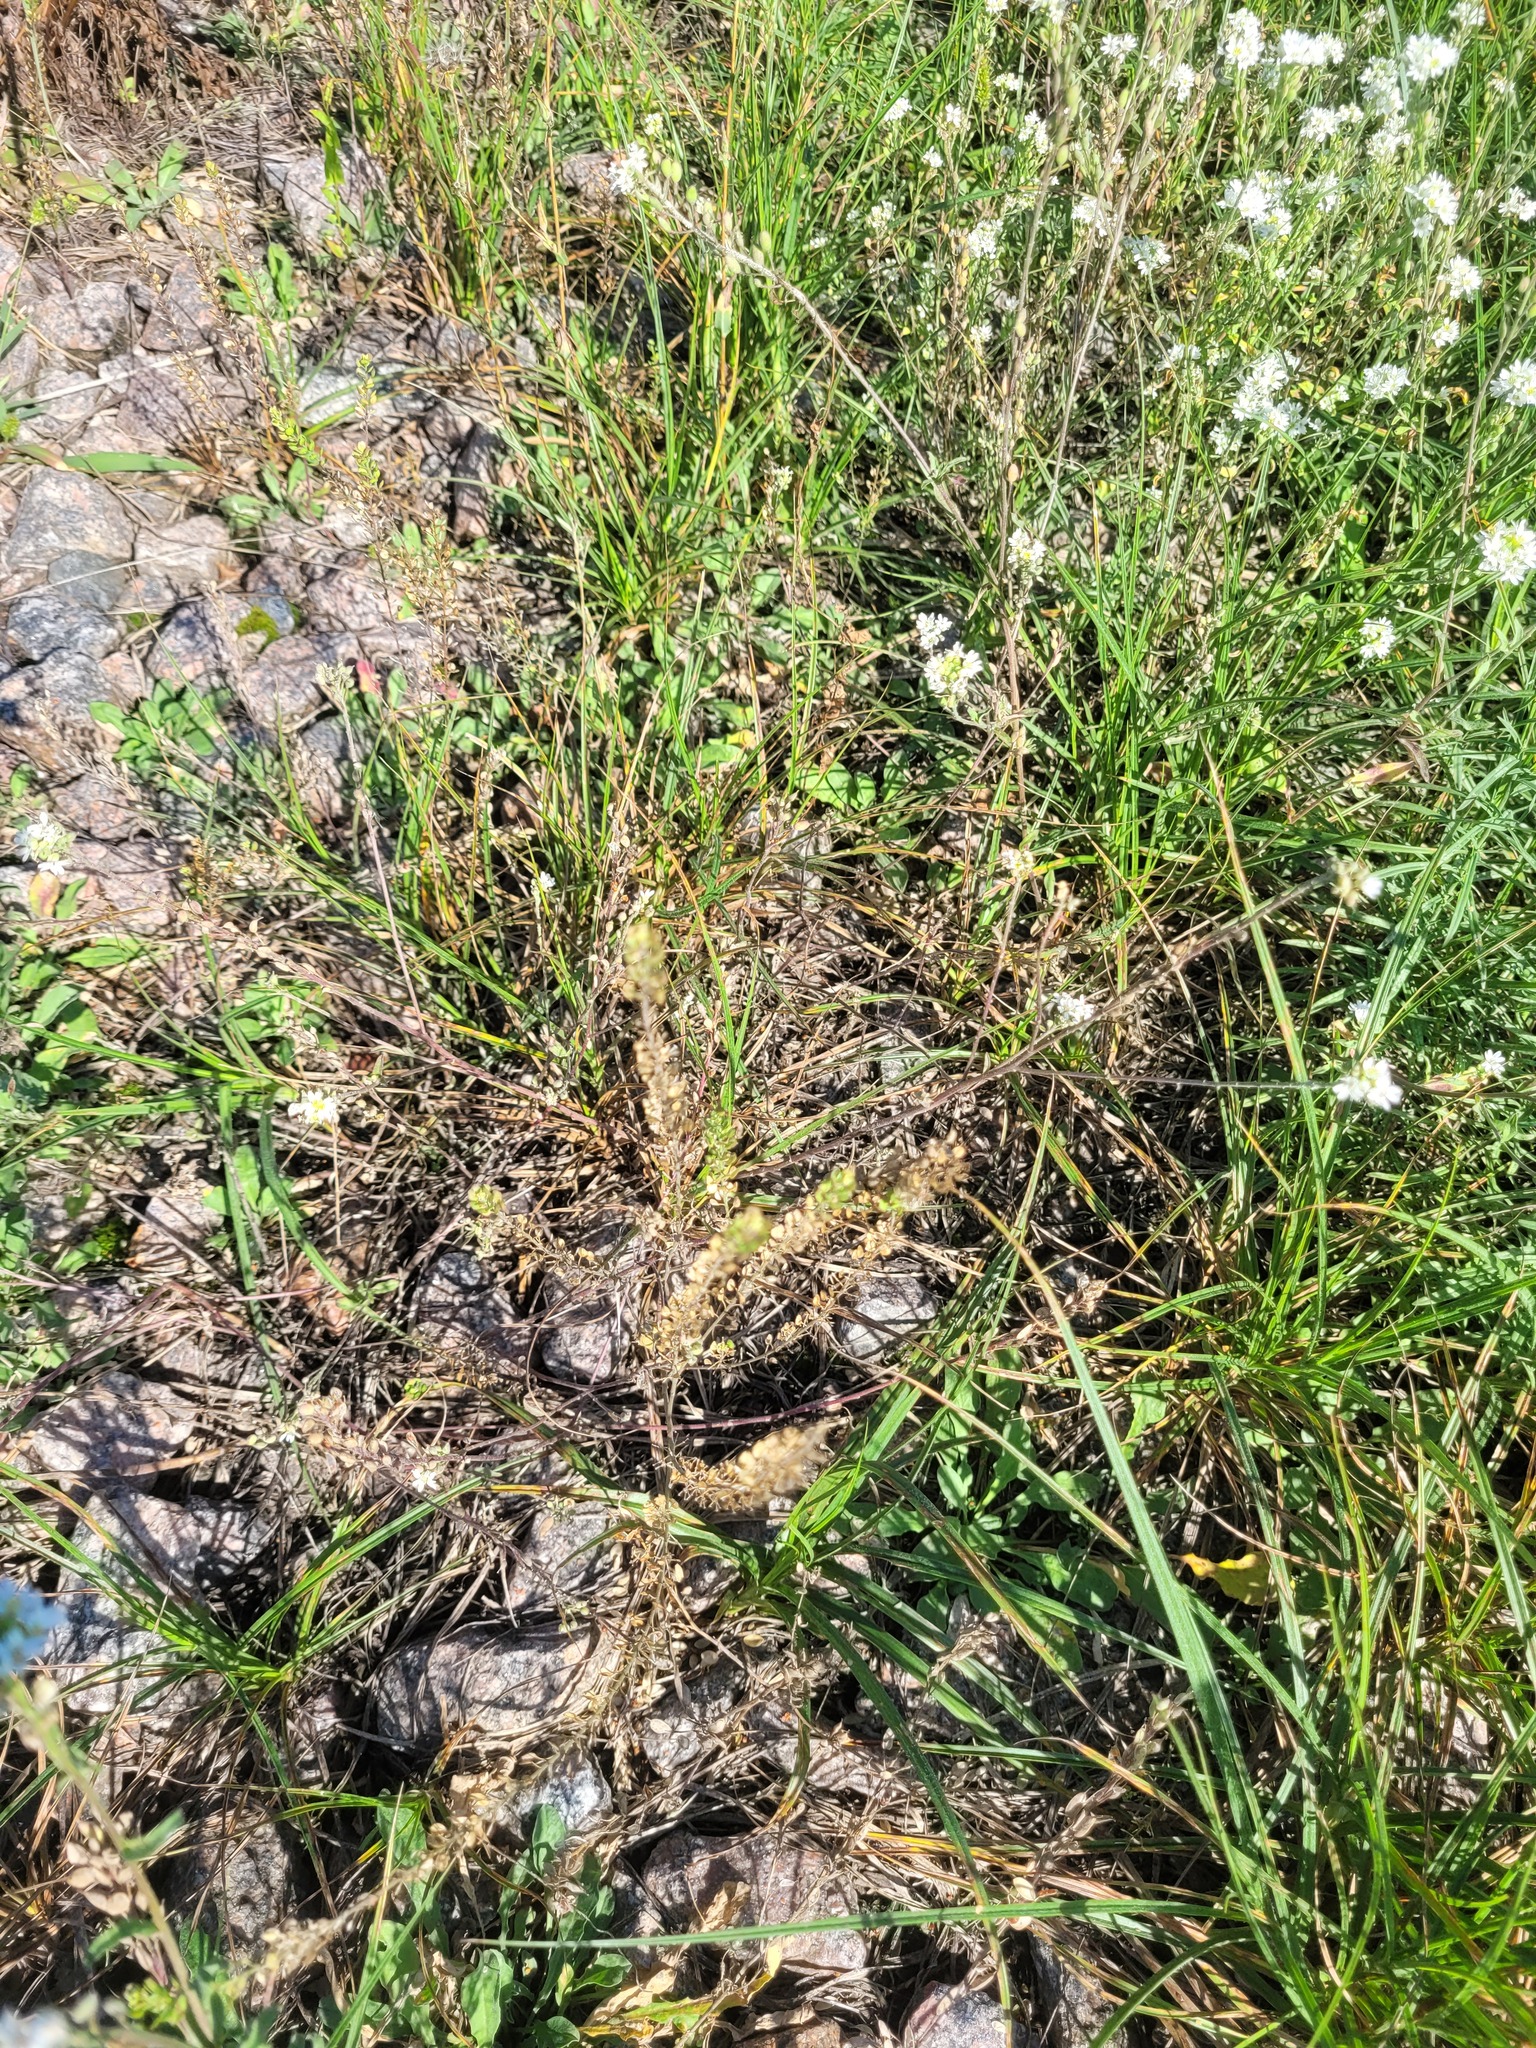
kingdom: Plantae
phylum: Tracheophyta
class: Magnoliopsida
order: Brassicales
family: Brassicaceae
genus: Lepidium
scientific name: Lepidium densiflorum
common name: Miner's pepperwort
